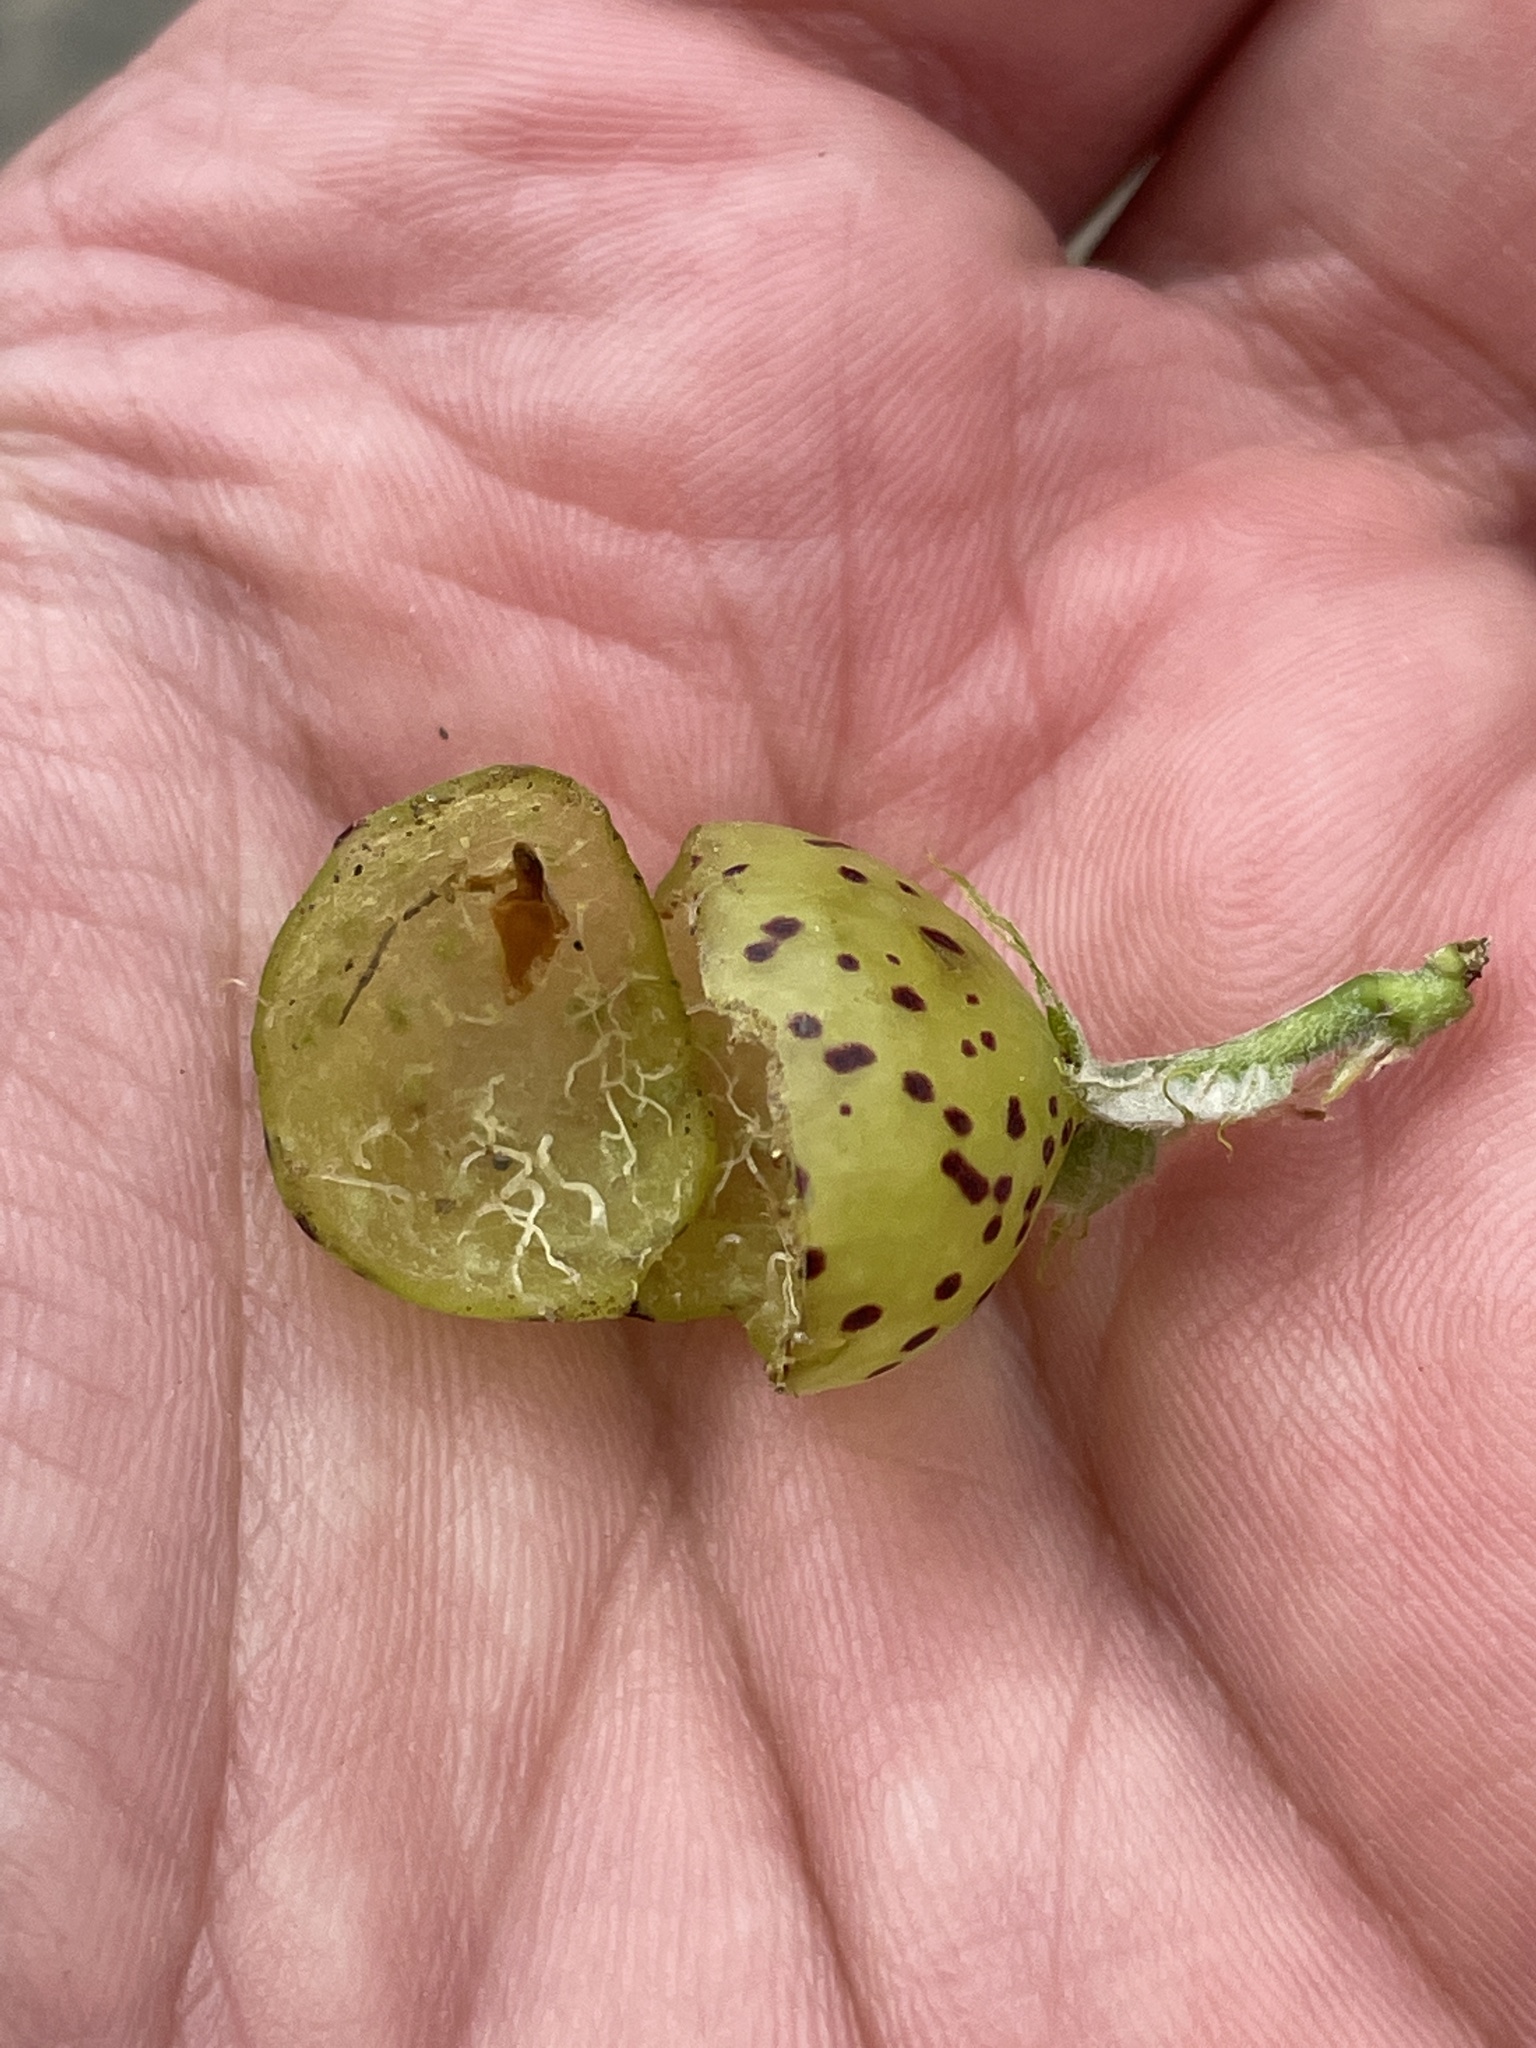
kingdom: Animalia
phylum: Arthropoda
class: Insecta
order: Hymenoptera
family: Cynipidae
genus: Amphibolips
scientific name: Amphibolips
